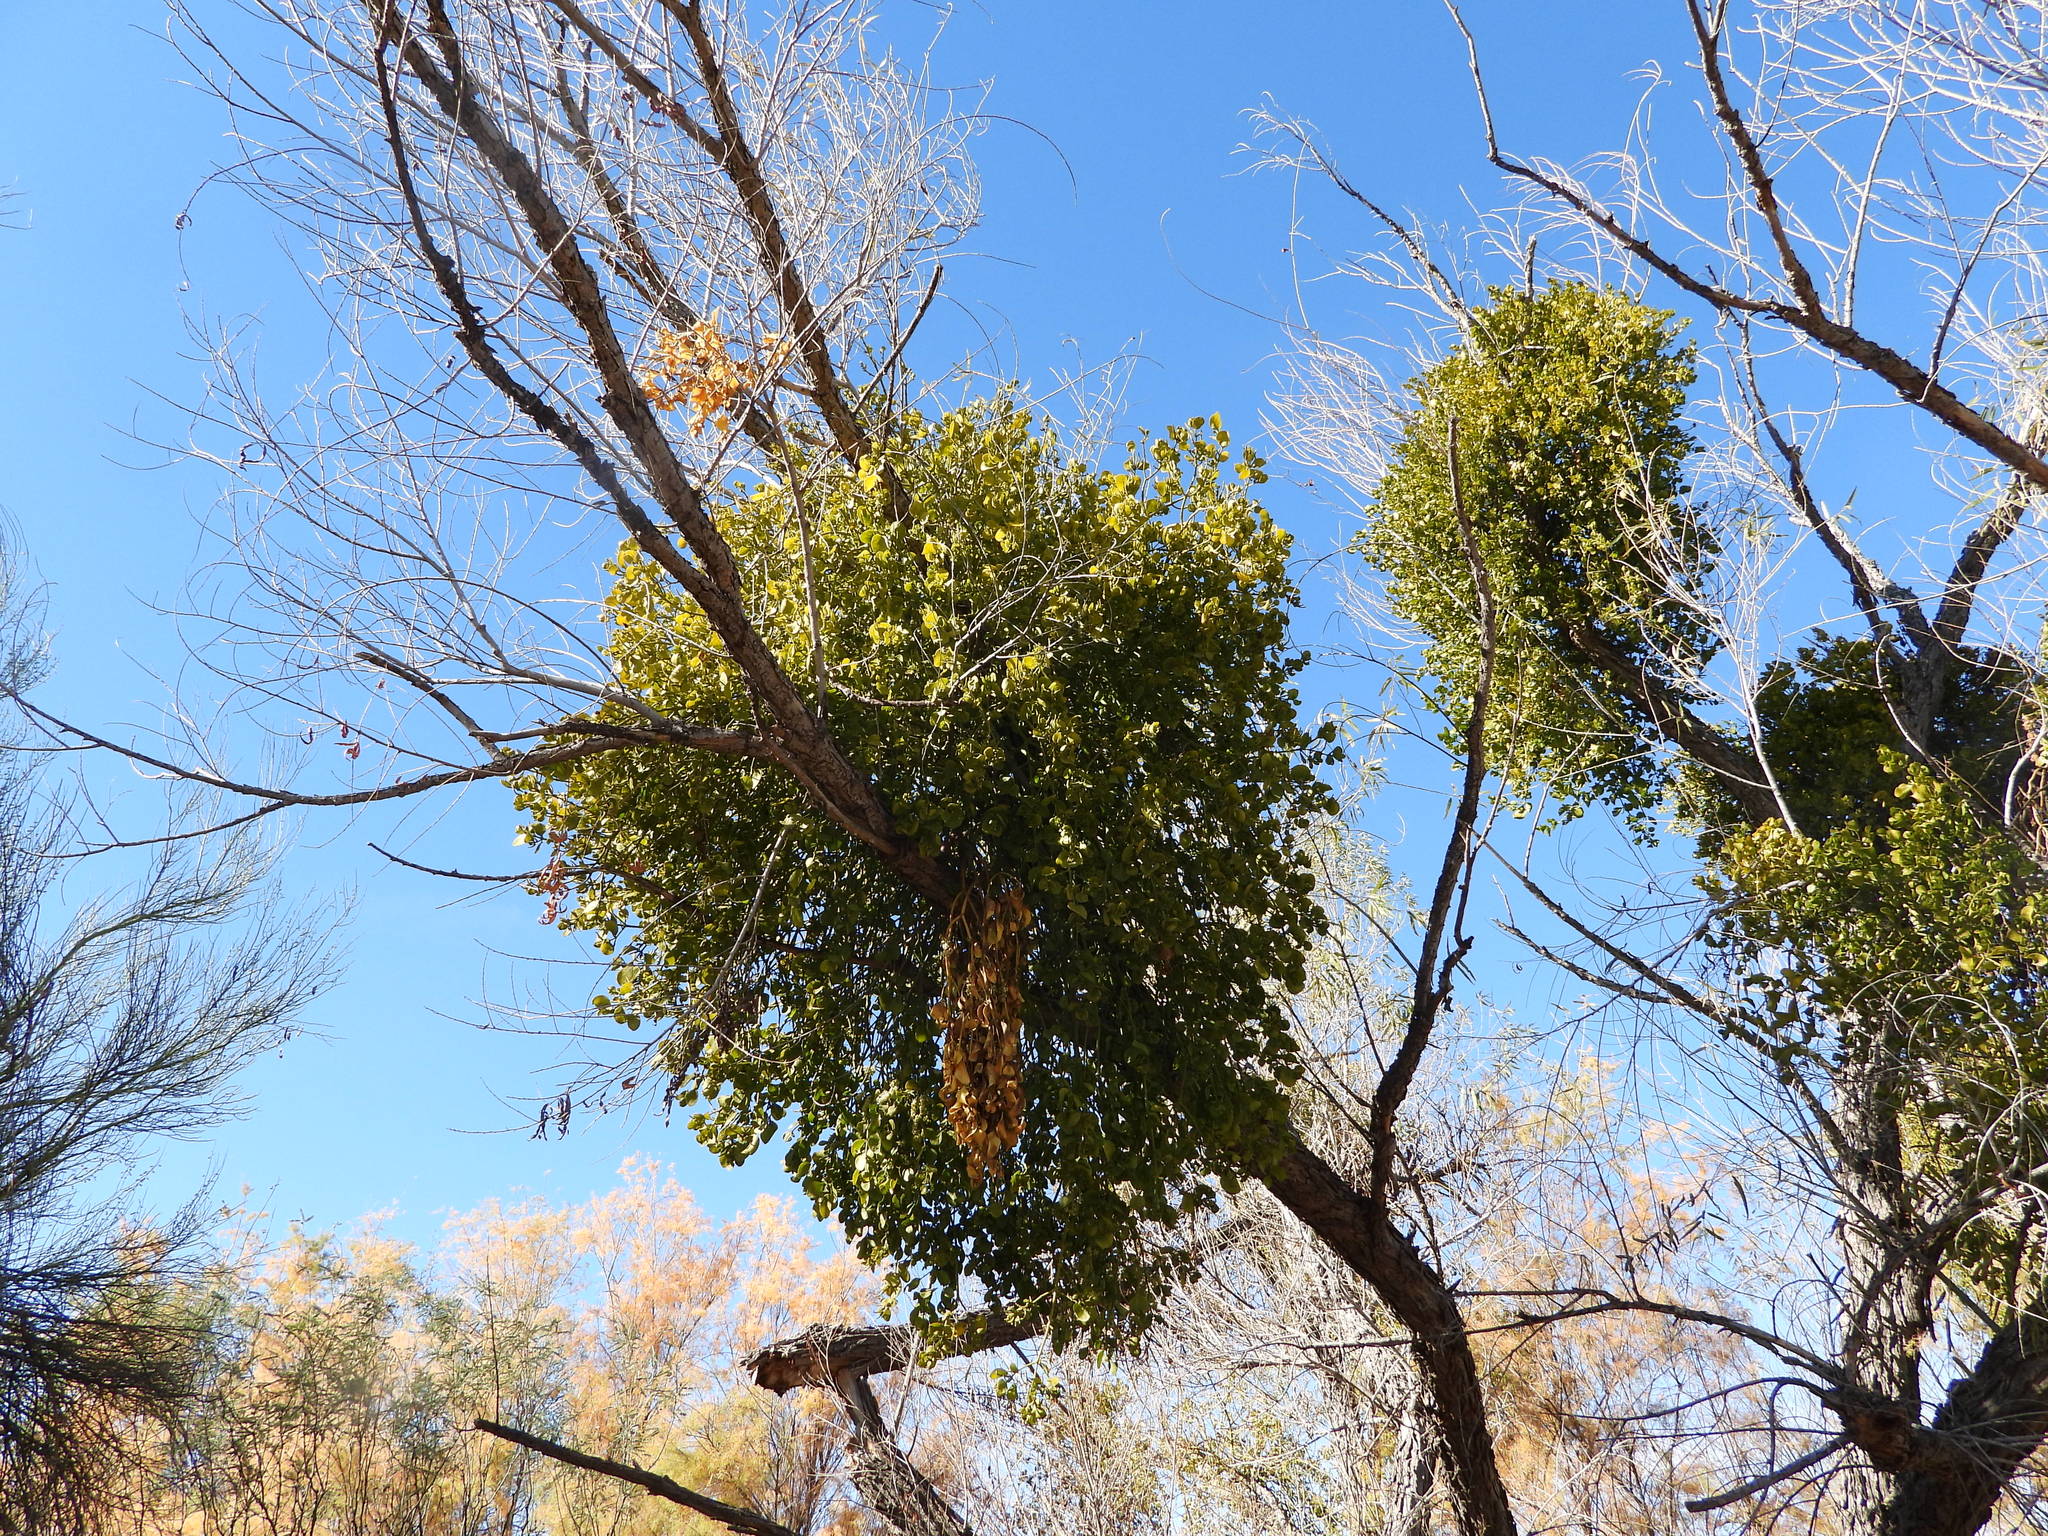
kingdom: Plantae
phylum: Tracheophyta
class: Magnoliopsida
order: Santalales
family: Viscaceae
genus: Phoradendron
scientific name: Phoradendron
